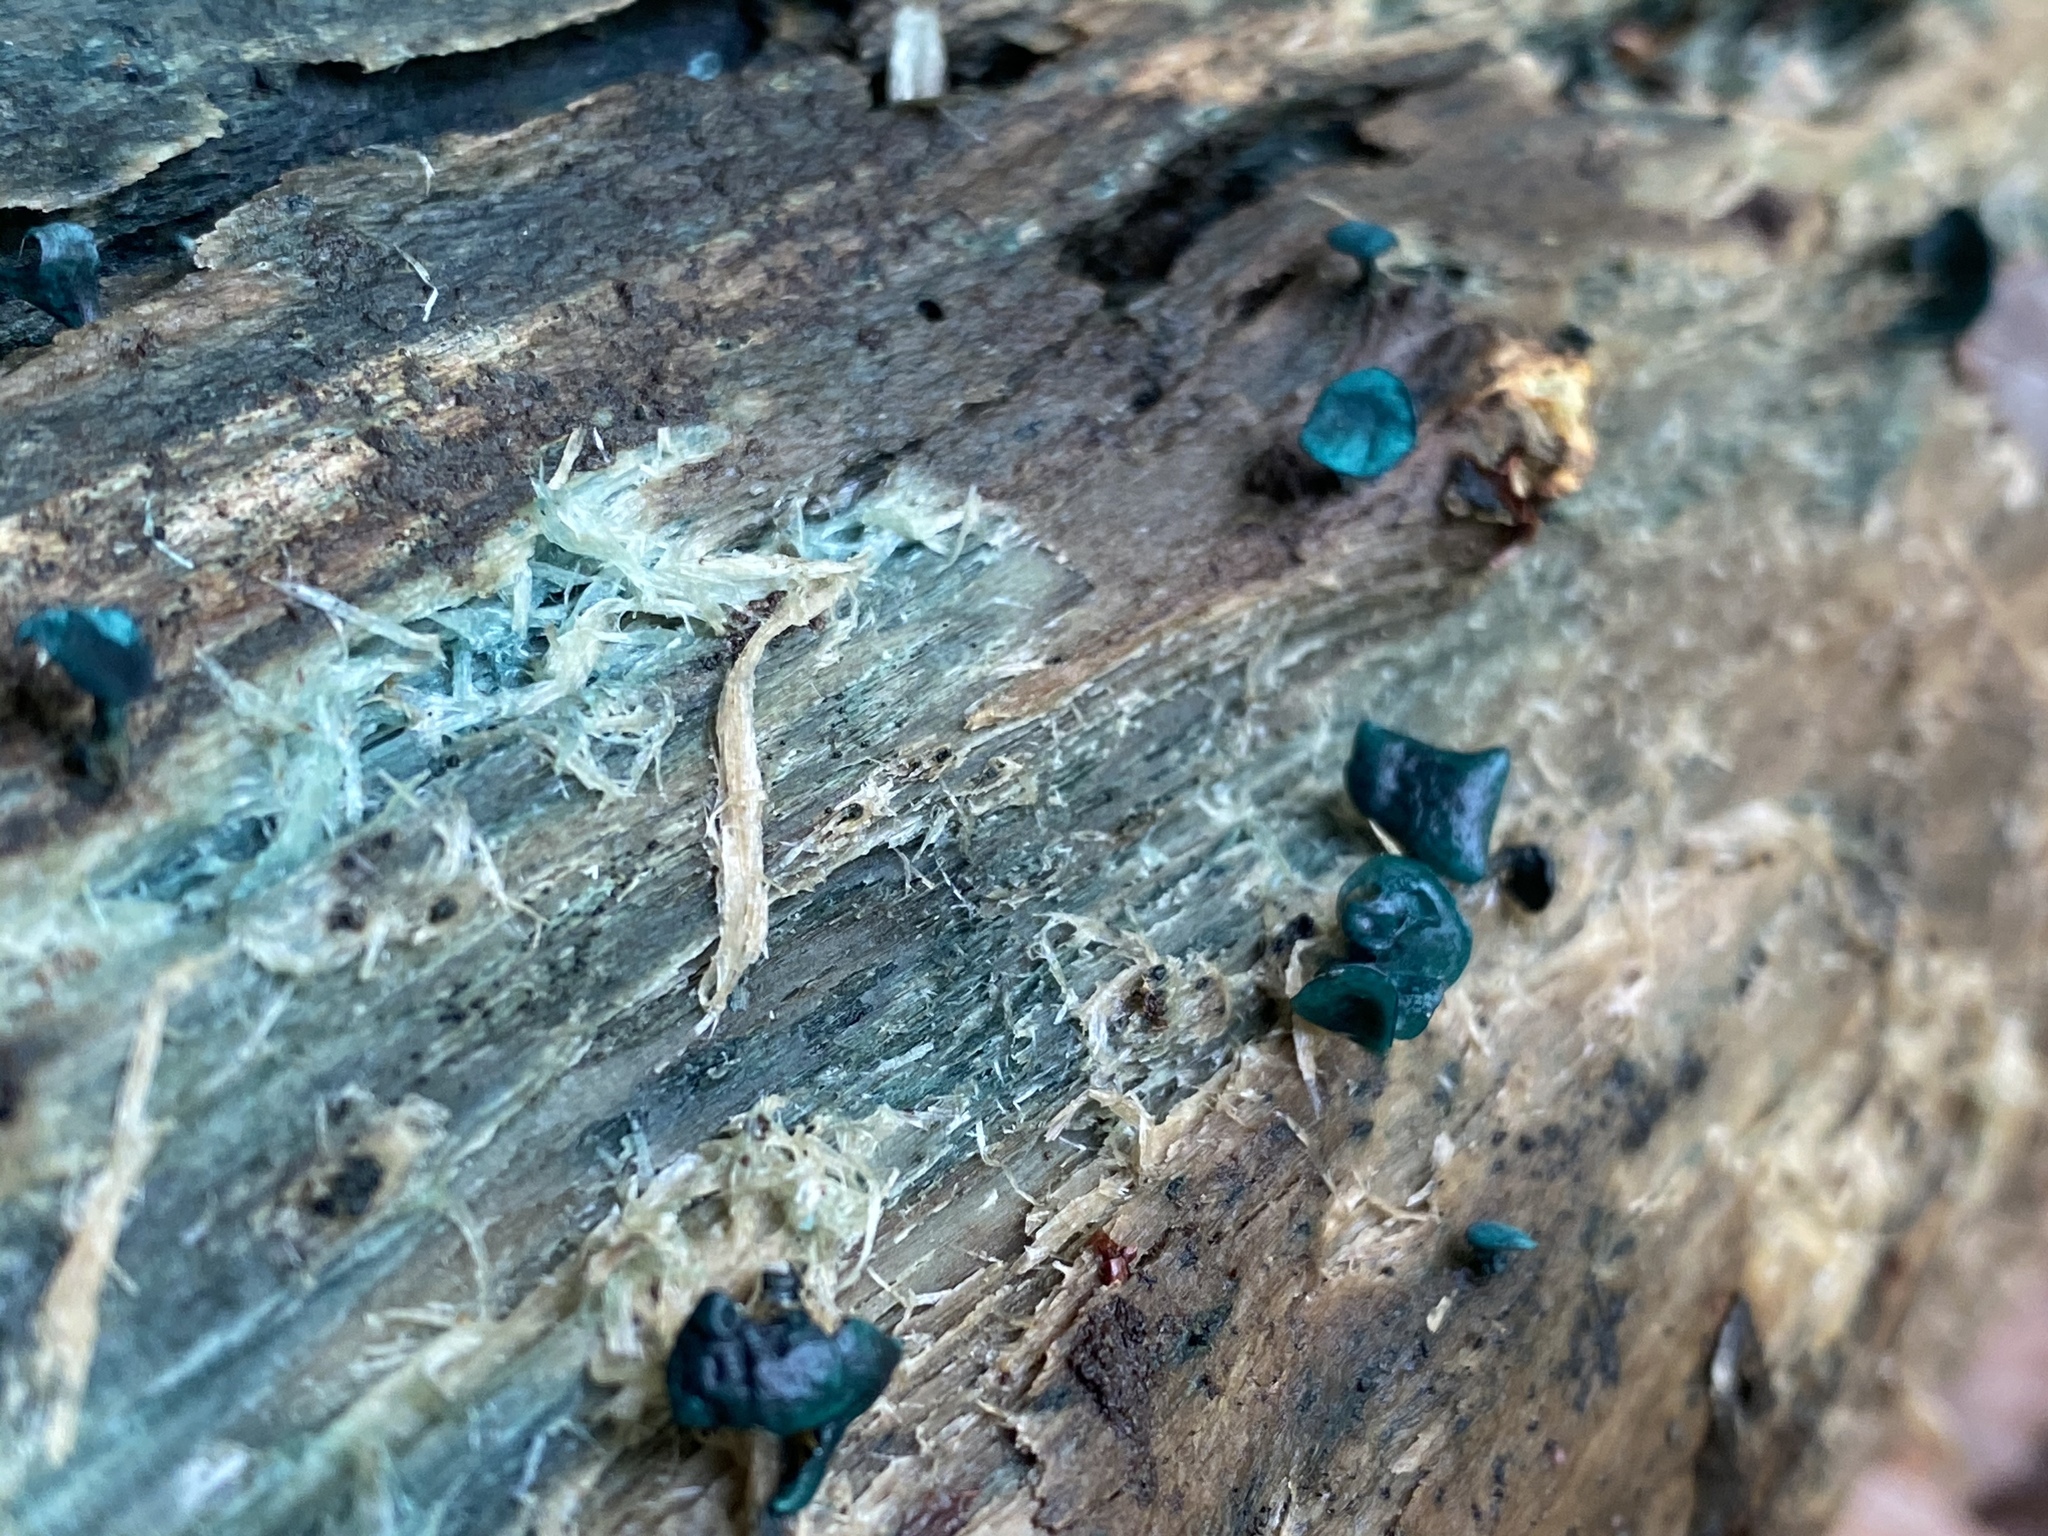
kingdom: Fungi
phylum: Ascomycota
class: Leotiomycetes
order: Helotiales
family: Chlorociboriaceae
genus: Chlorociboria
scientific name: Chlorociboria aeruginascens
